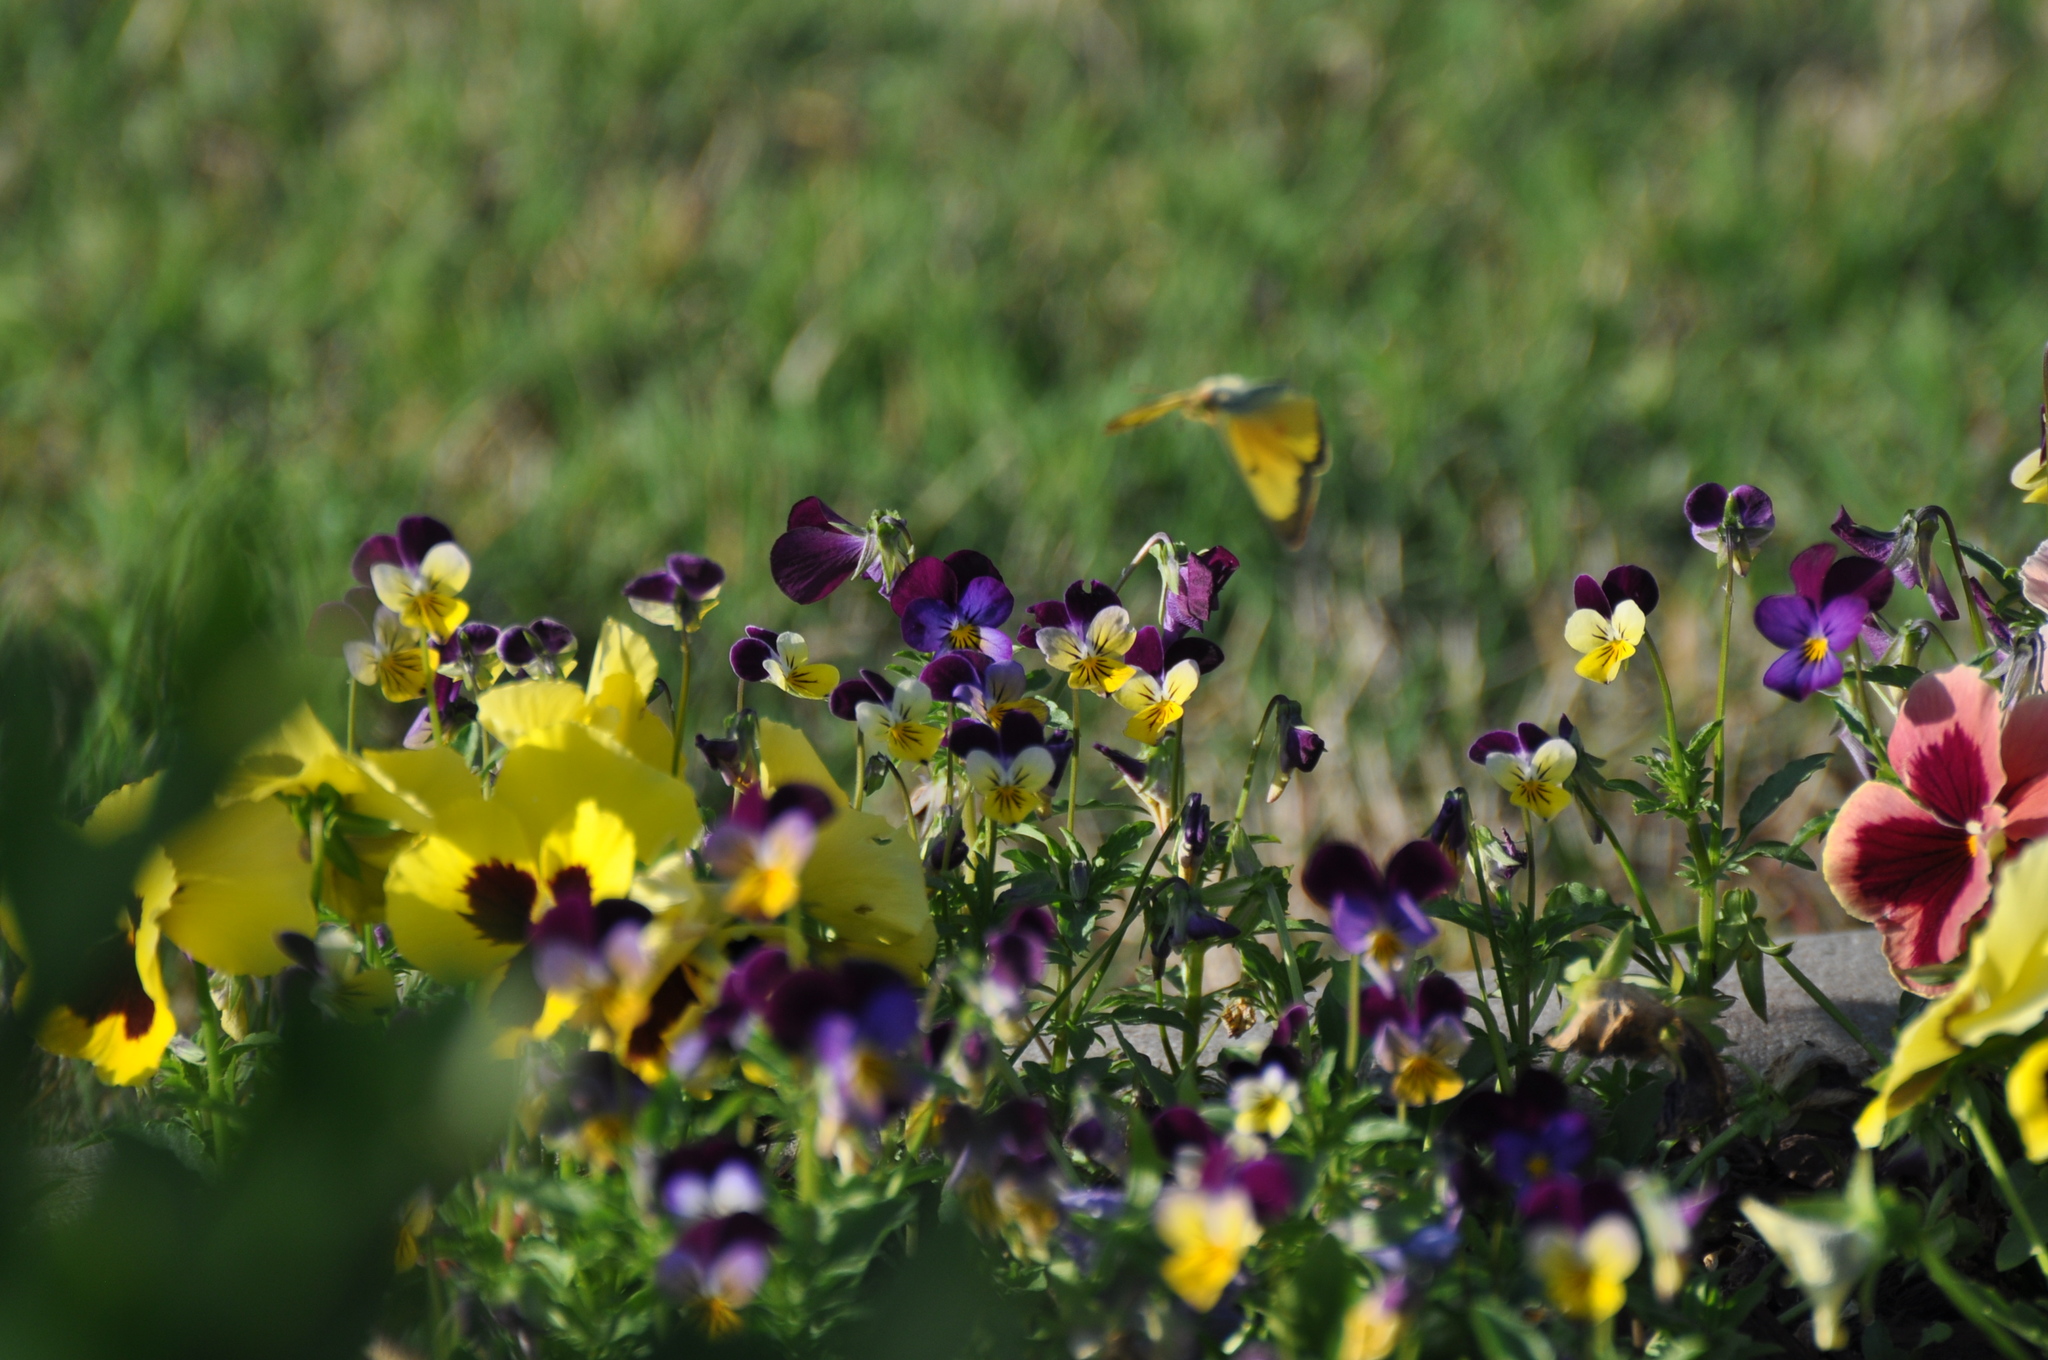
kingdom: Animalia
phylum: Arthropoda
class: Insecta
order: Lepidoptera
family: Pieridae
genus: Colias
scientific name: Colias eurytheme
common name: Alfalfa butterfly
